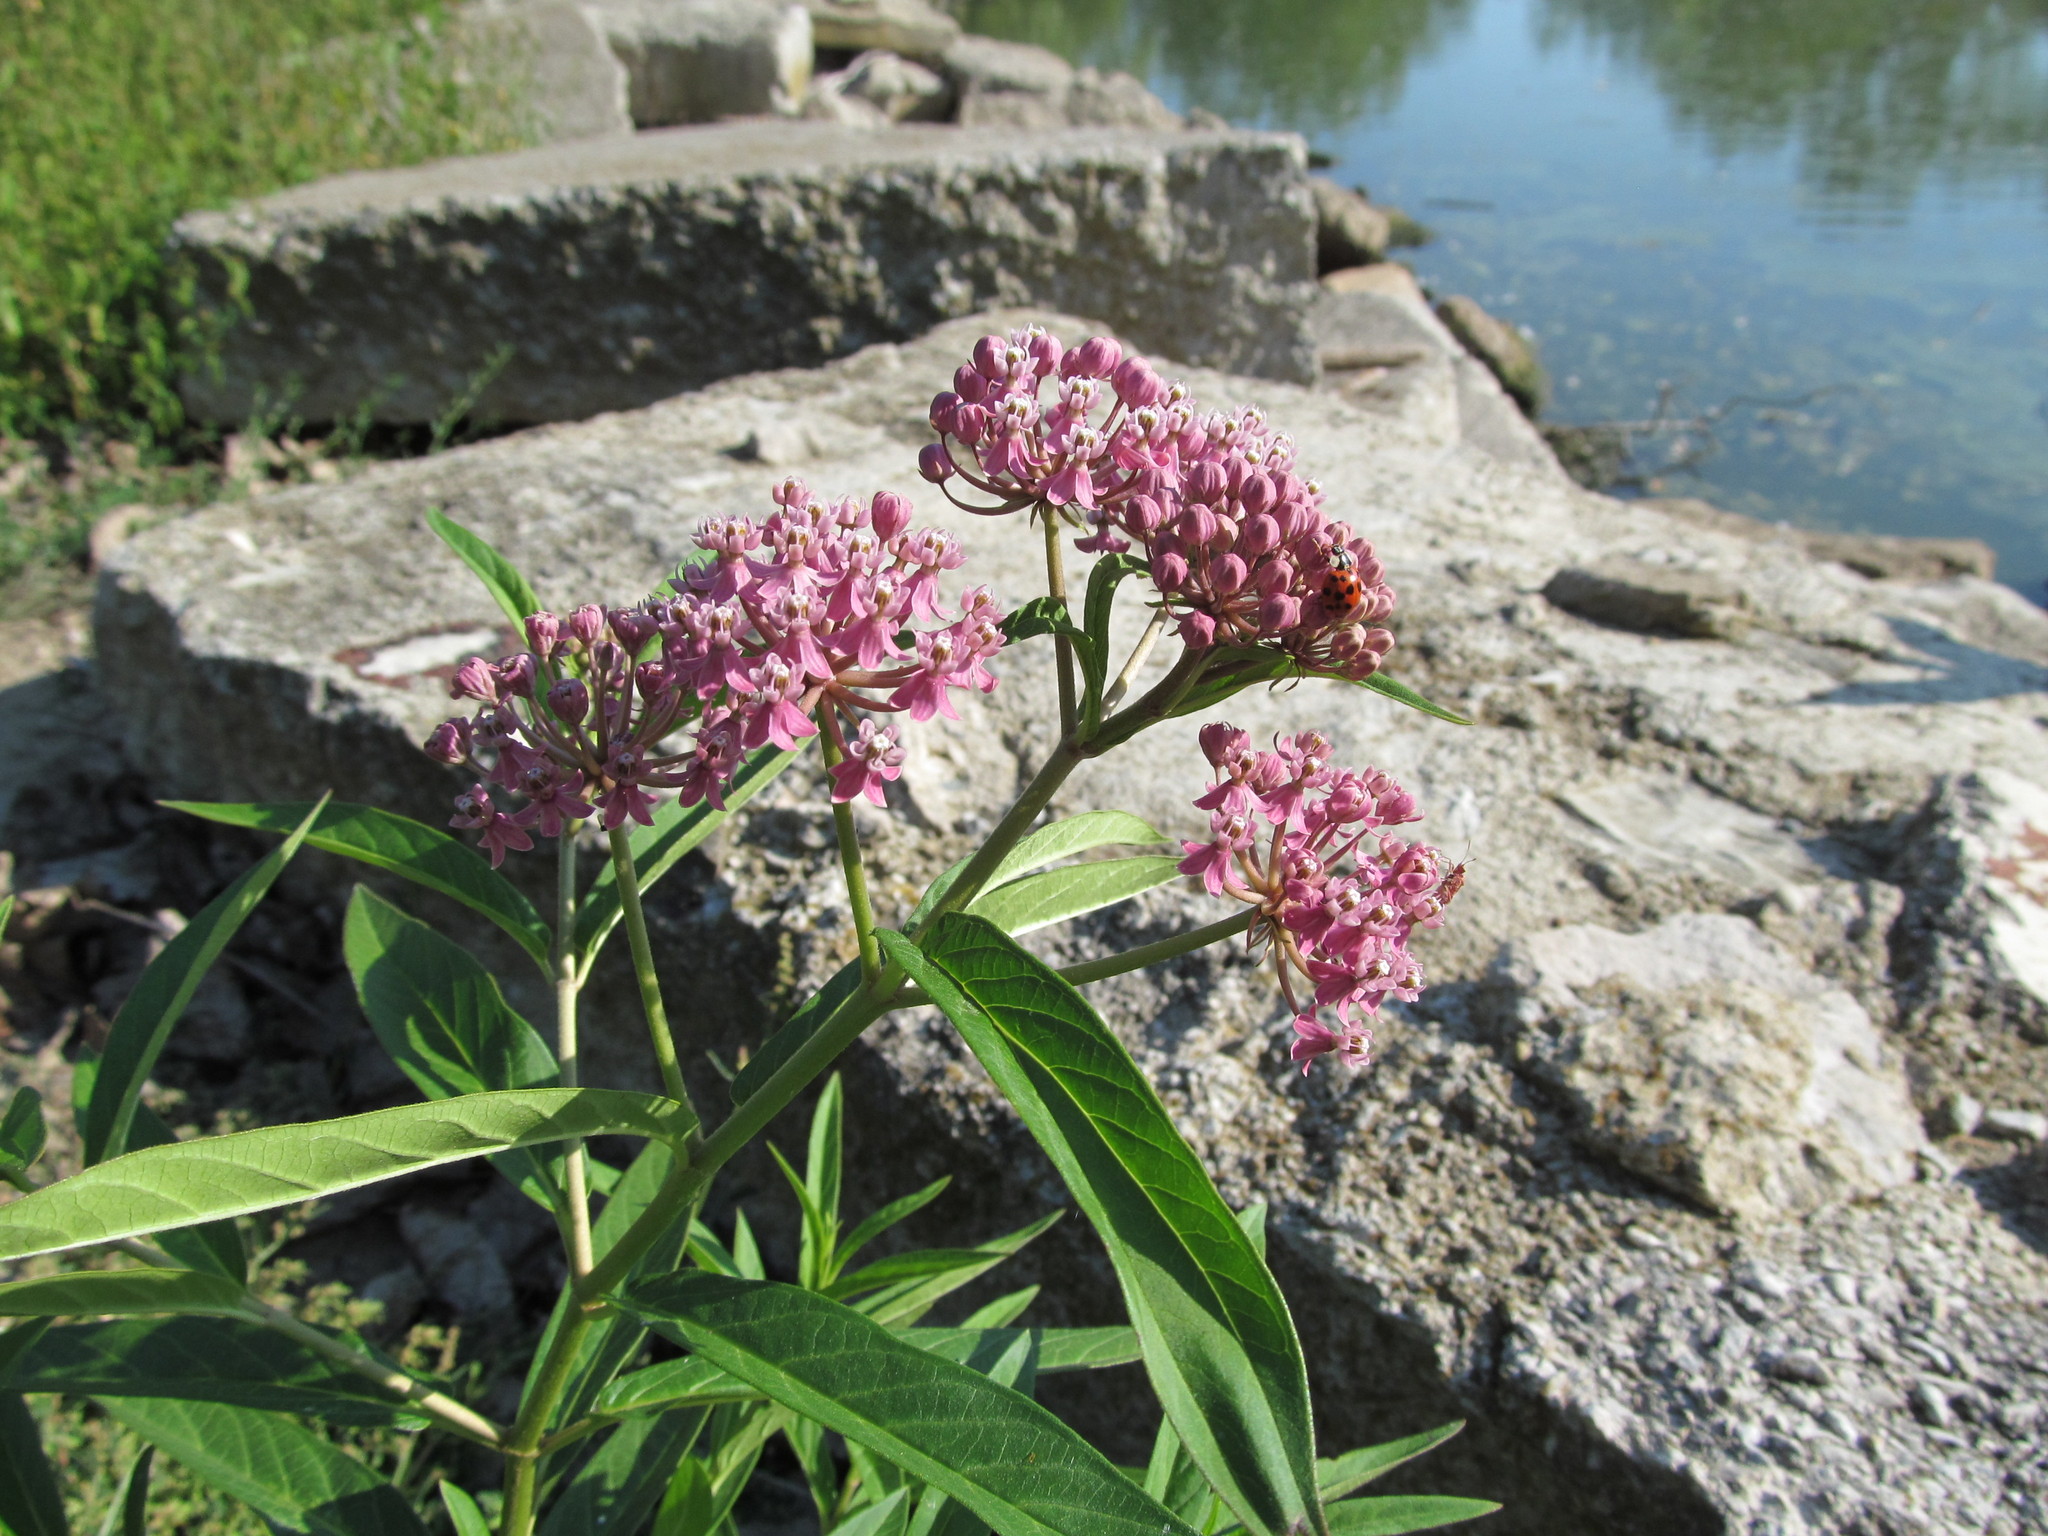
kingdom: Plantae
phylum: Tracheophyta
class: Magnoliopsida
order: Gentianales
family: Apocynaceae
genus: Asclepias
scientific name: Asclepias incarnata
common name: Swamp milkweed
